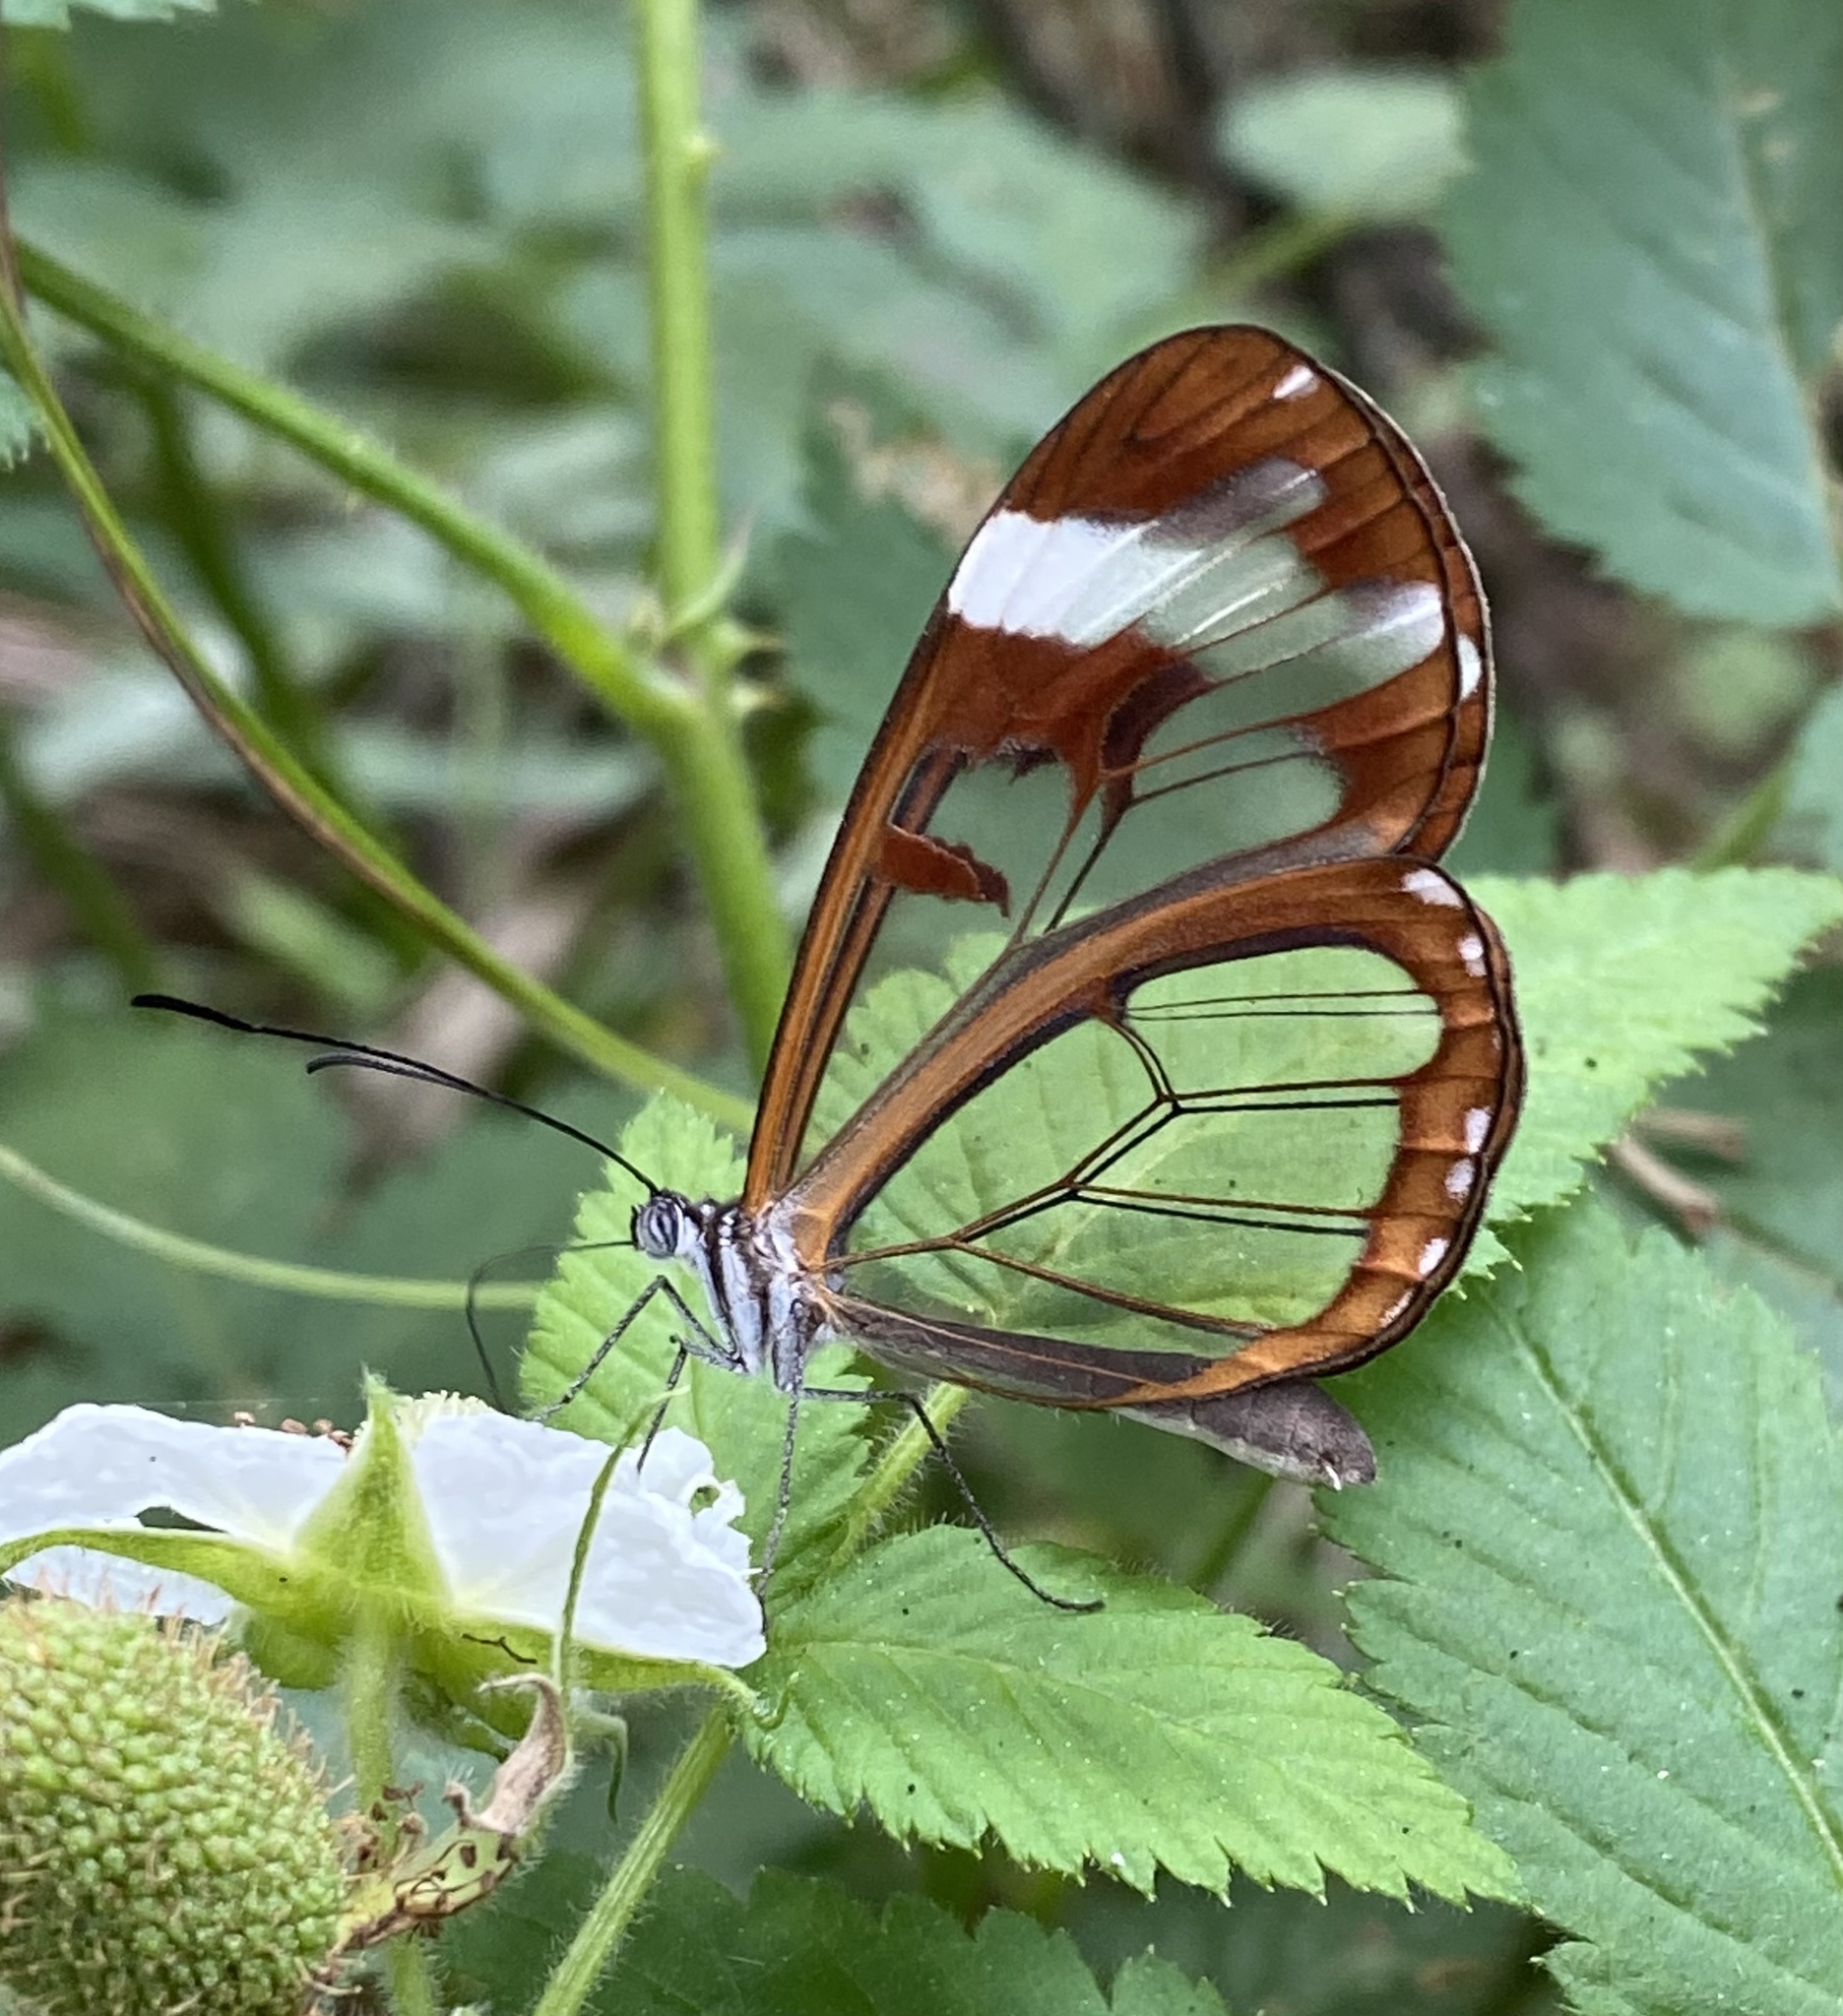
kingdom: Animalia
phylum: Arthropoda
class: Insecta
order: Lepidoptera
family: Nymphalidae
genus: Oleria
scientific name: Oleria zea
